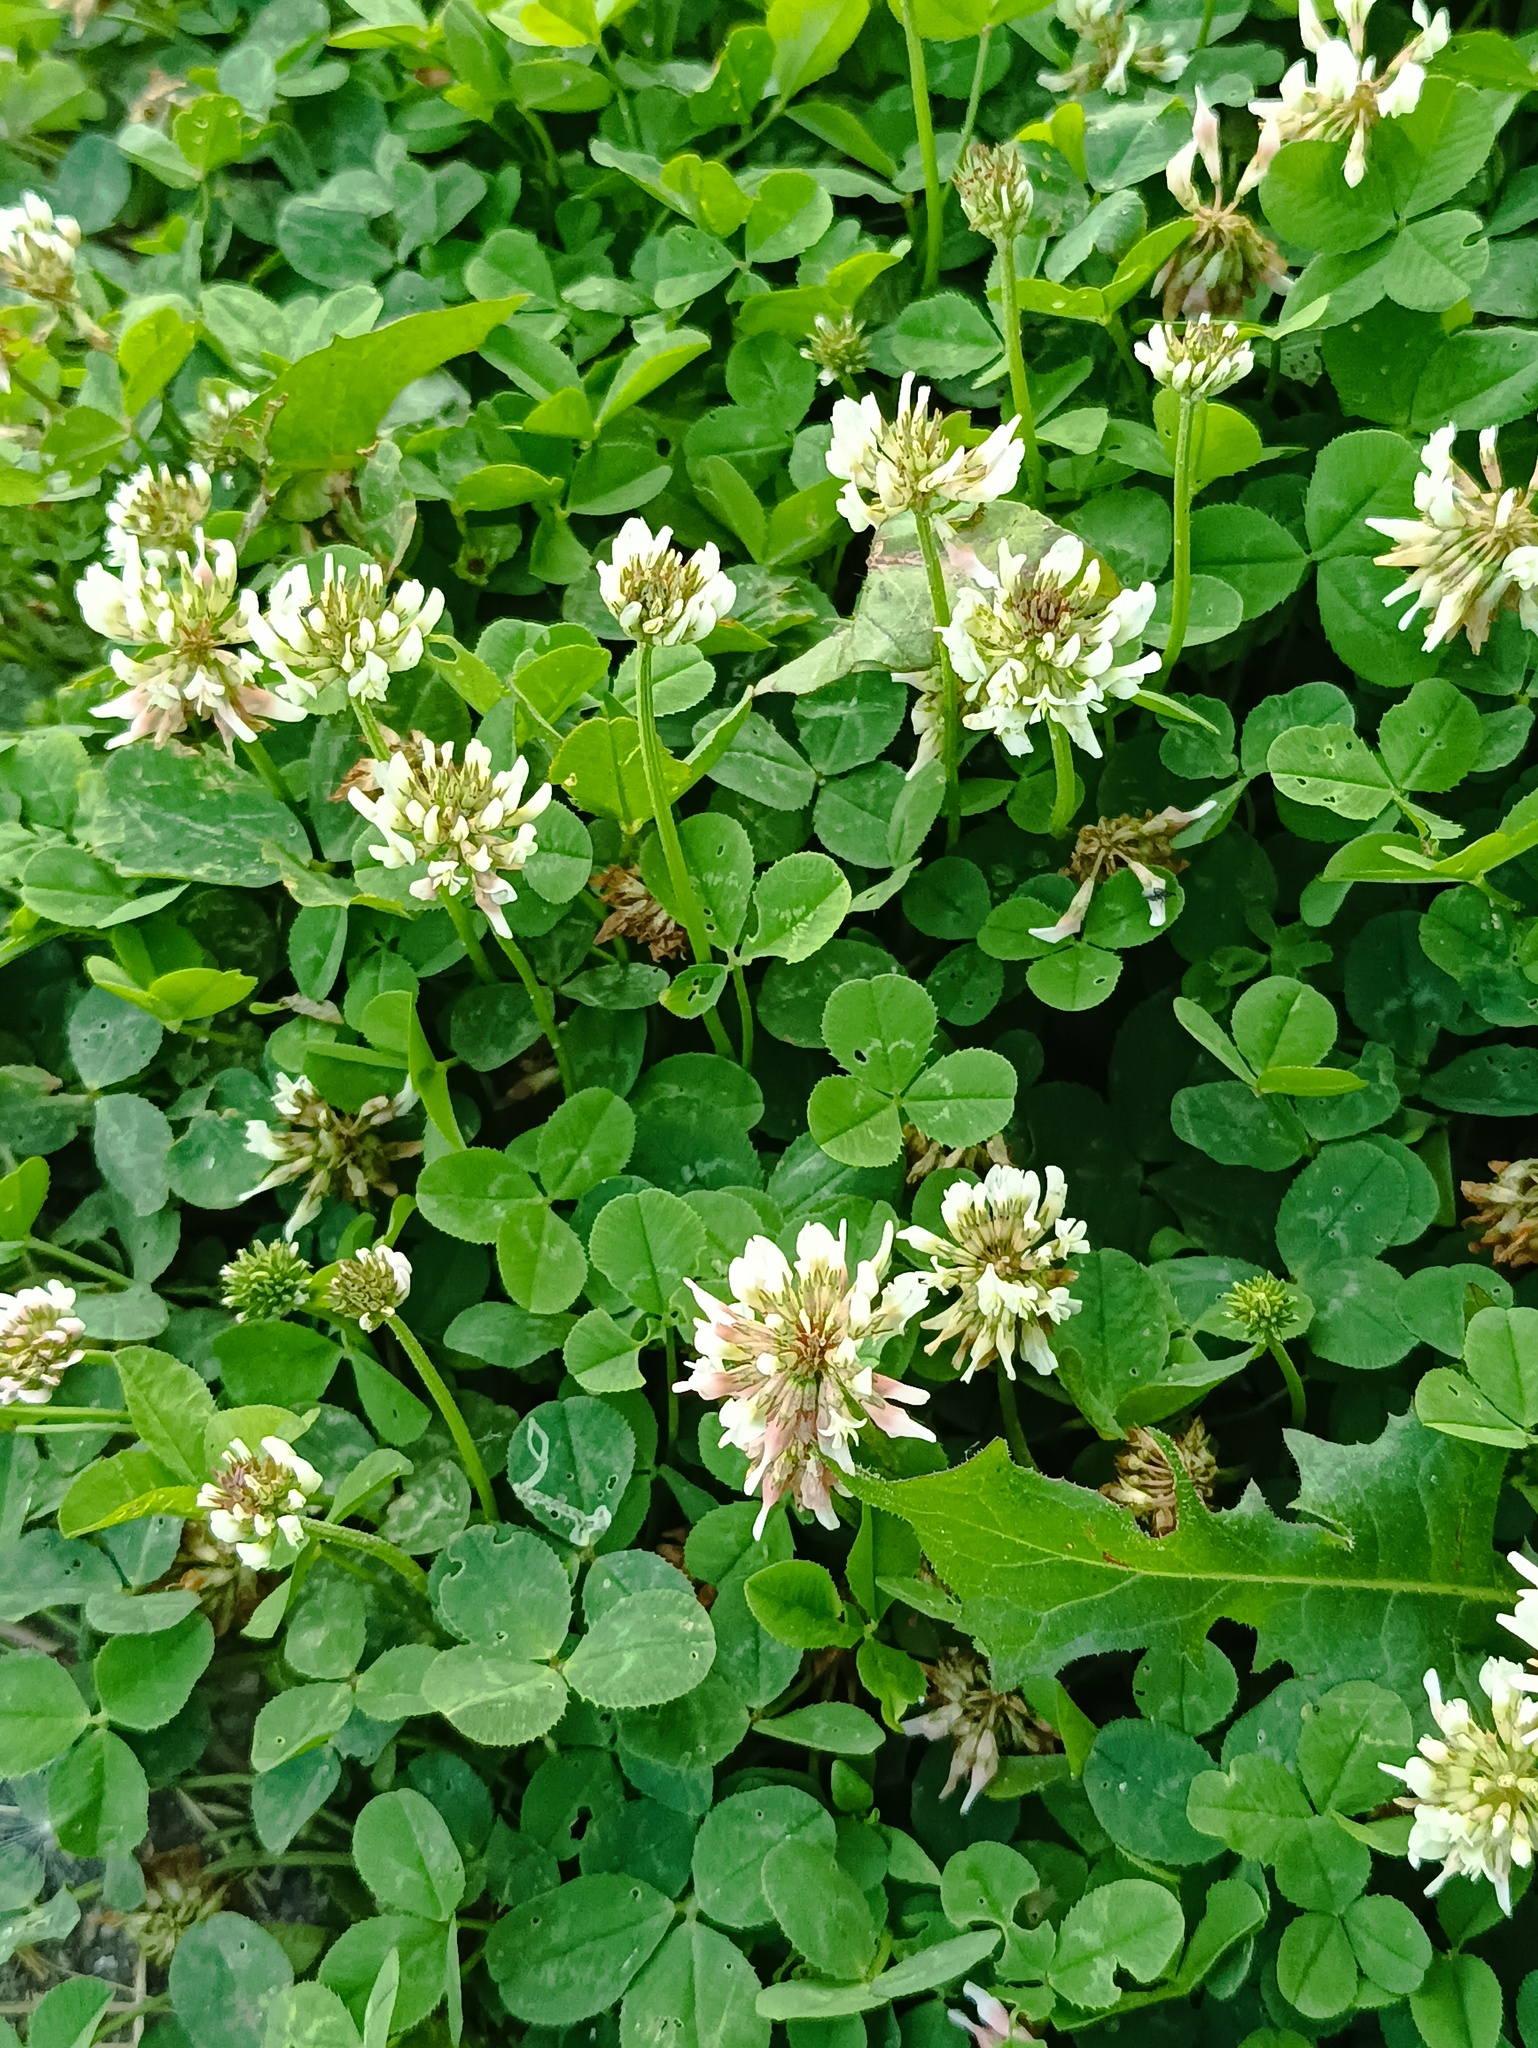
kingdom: Plantae
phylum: Tracheophyta
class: Magnoliopsida
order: Fabales
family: Fabaceae
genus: Trifolium
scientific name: Trifolium repens
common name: White clover
